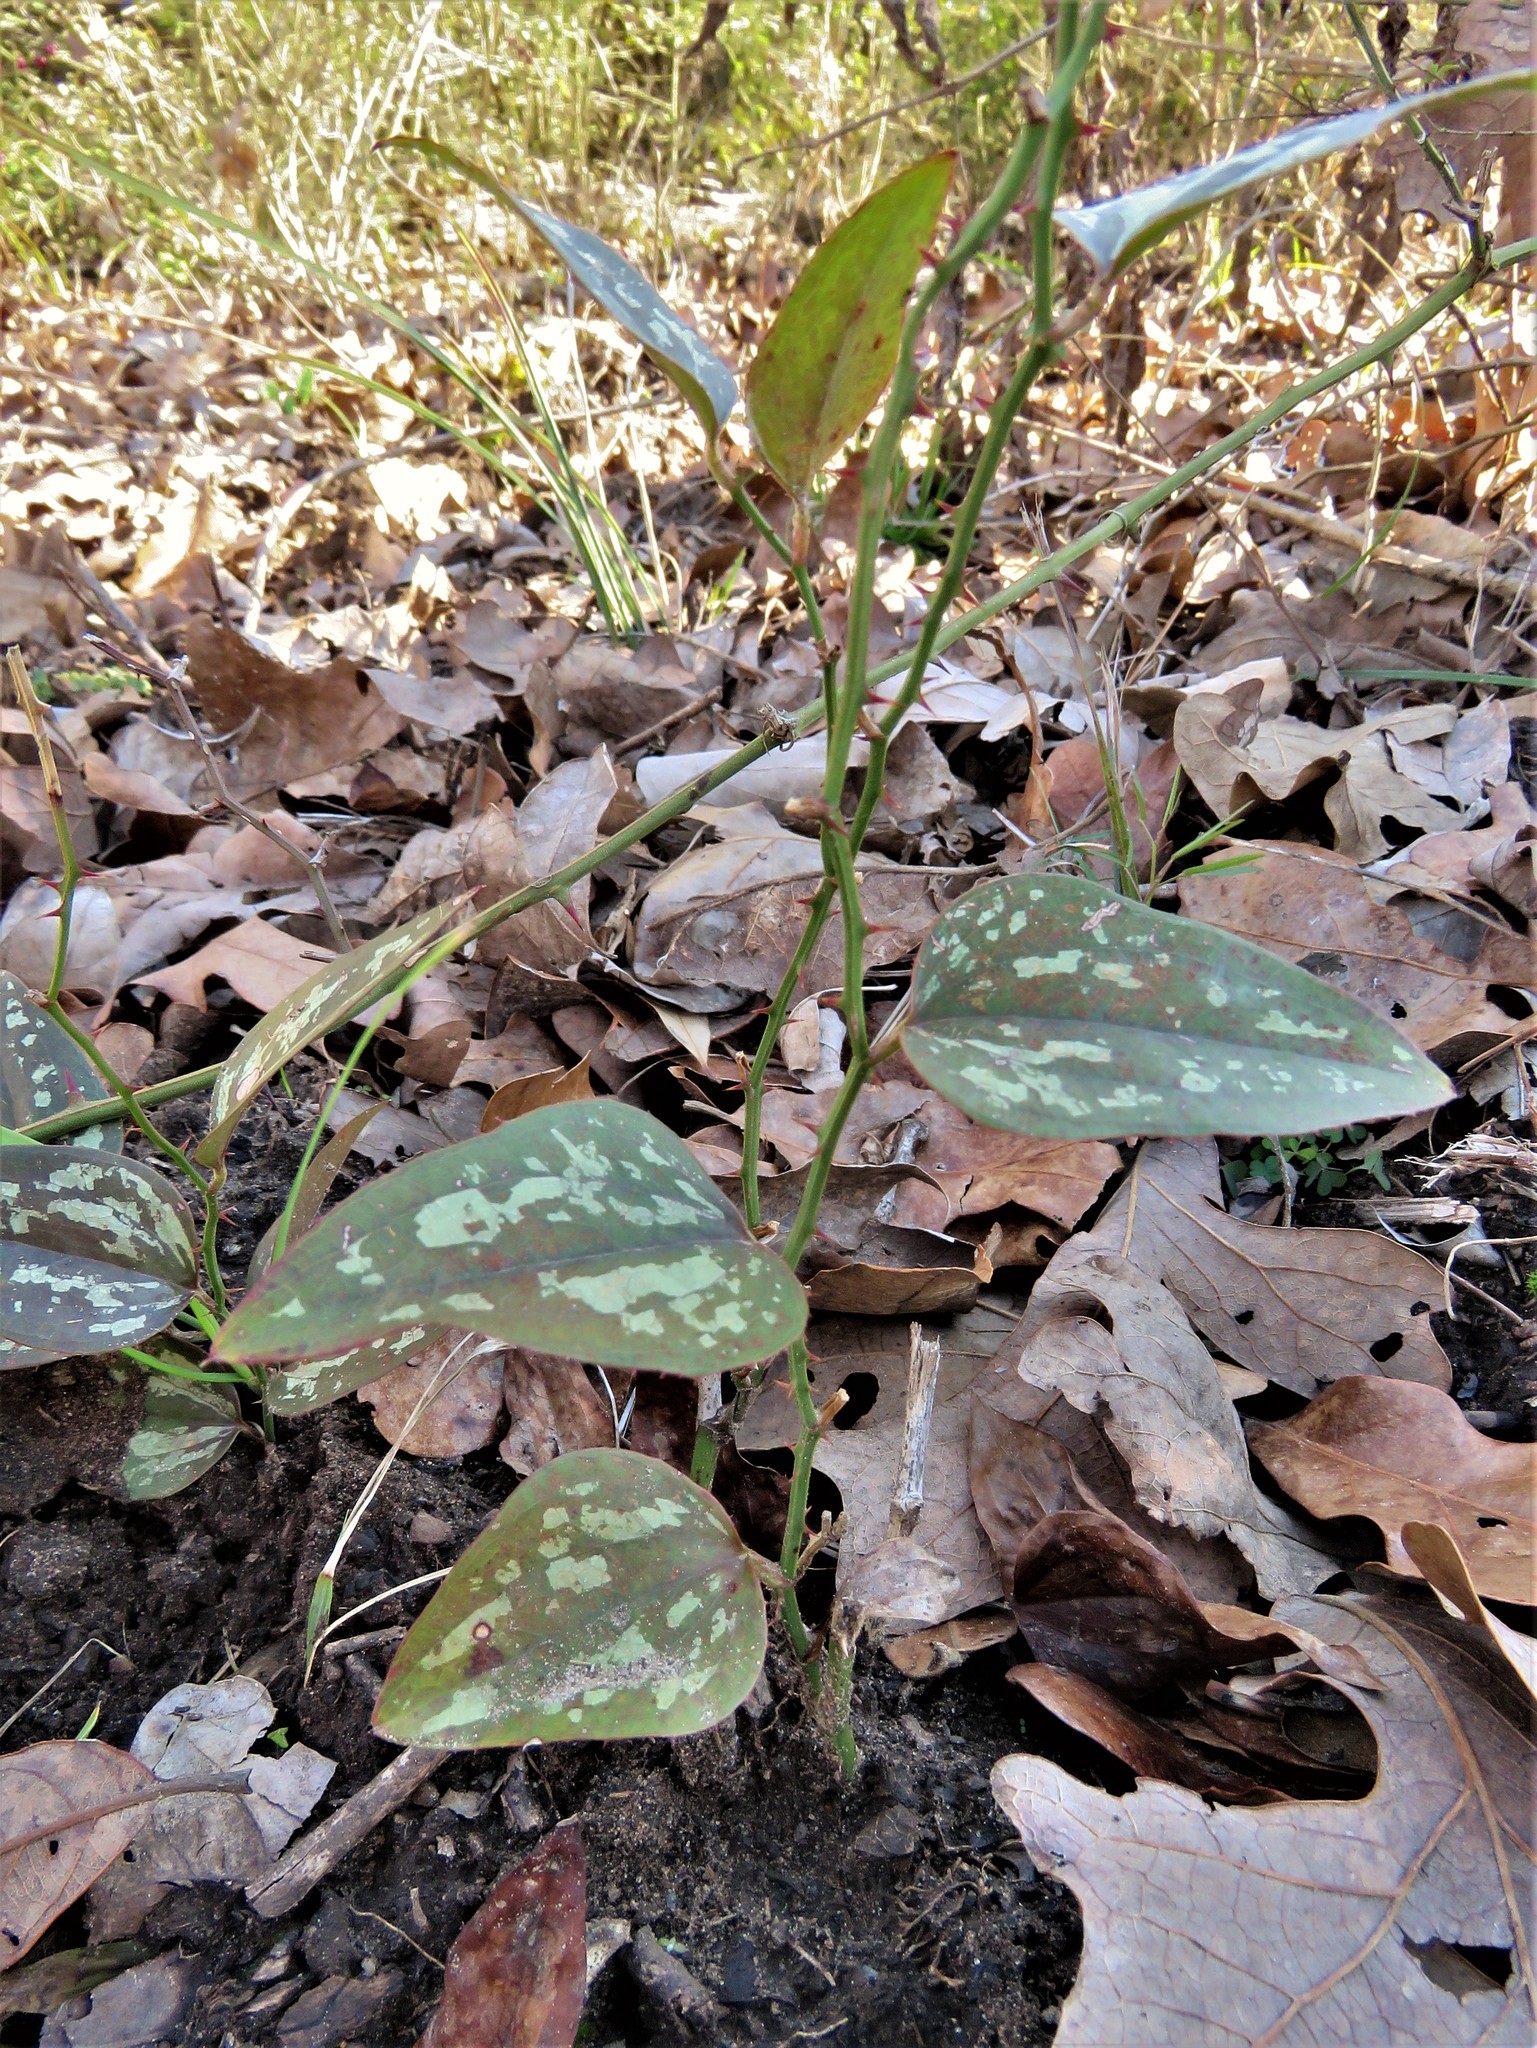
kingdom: Plantae
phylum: Tracheophyta
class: Liliopsida
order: Liliales
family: Smilacaceae
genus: Smilax
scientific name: Smilax bona-nox
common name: Catbrier
